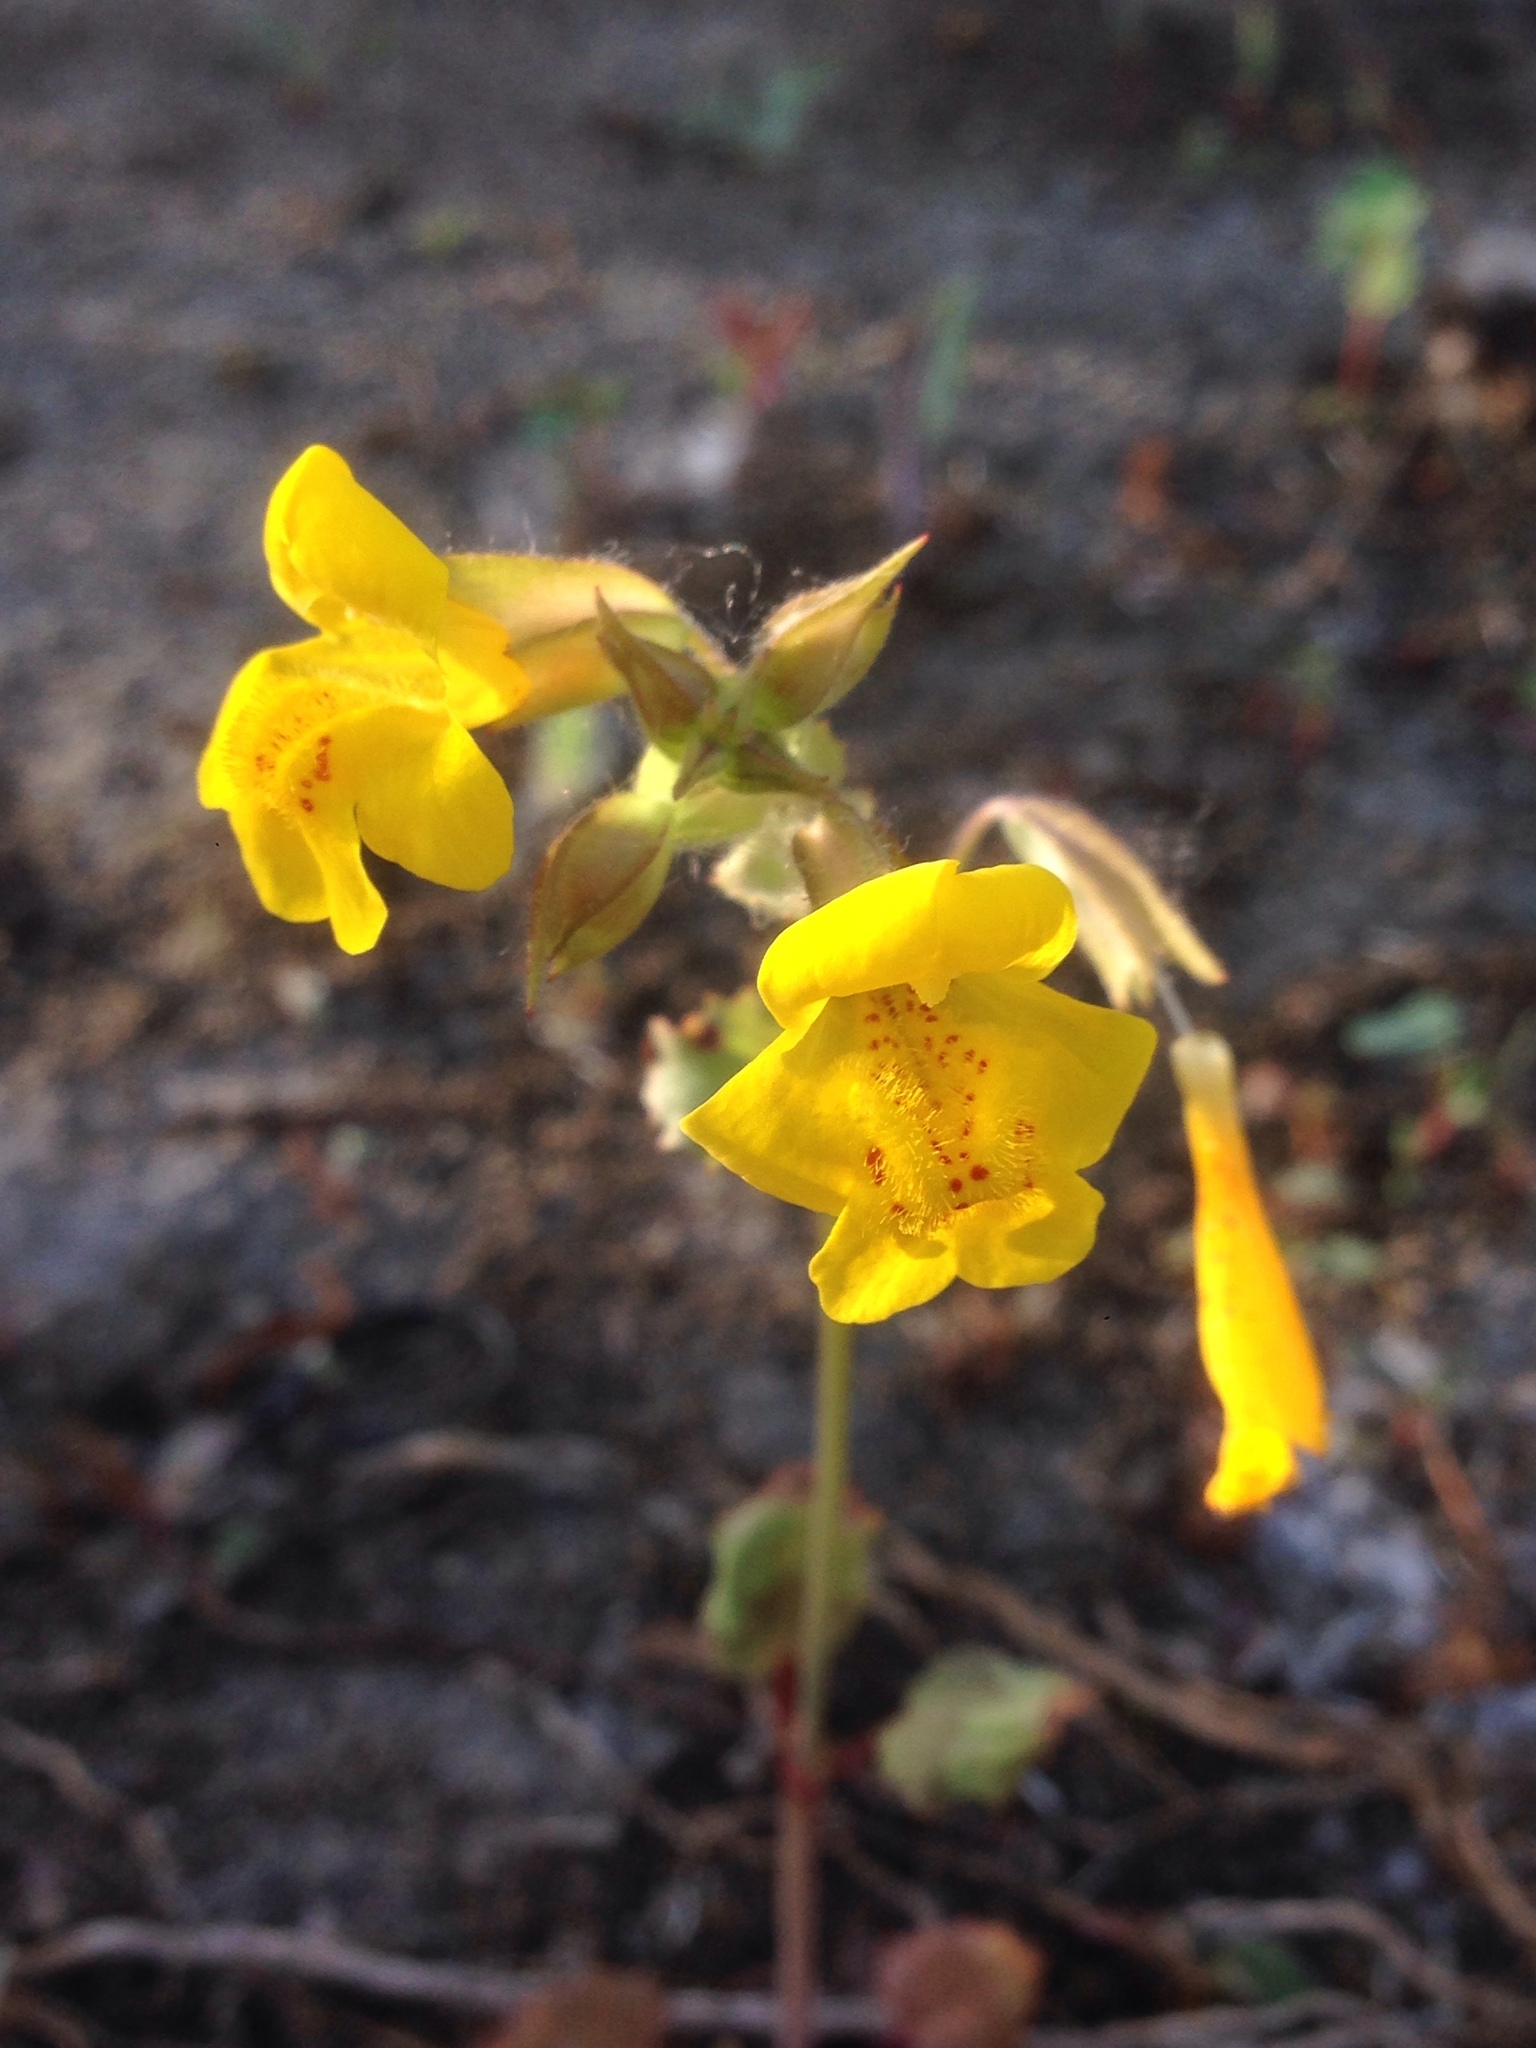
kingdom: Plantae
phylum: Tracheophyta
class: Magnoliopsida
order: Lamiales
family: Phrymaceae
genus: Erythranthe
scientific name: Erythranthe guttata
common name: Monkeyflower
